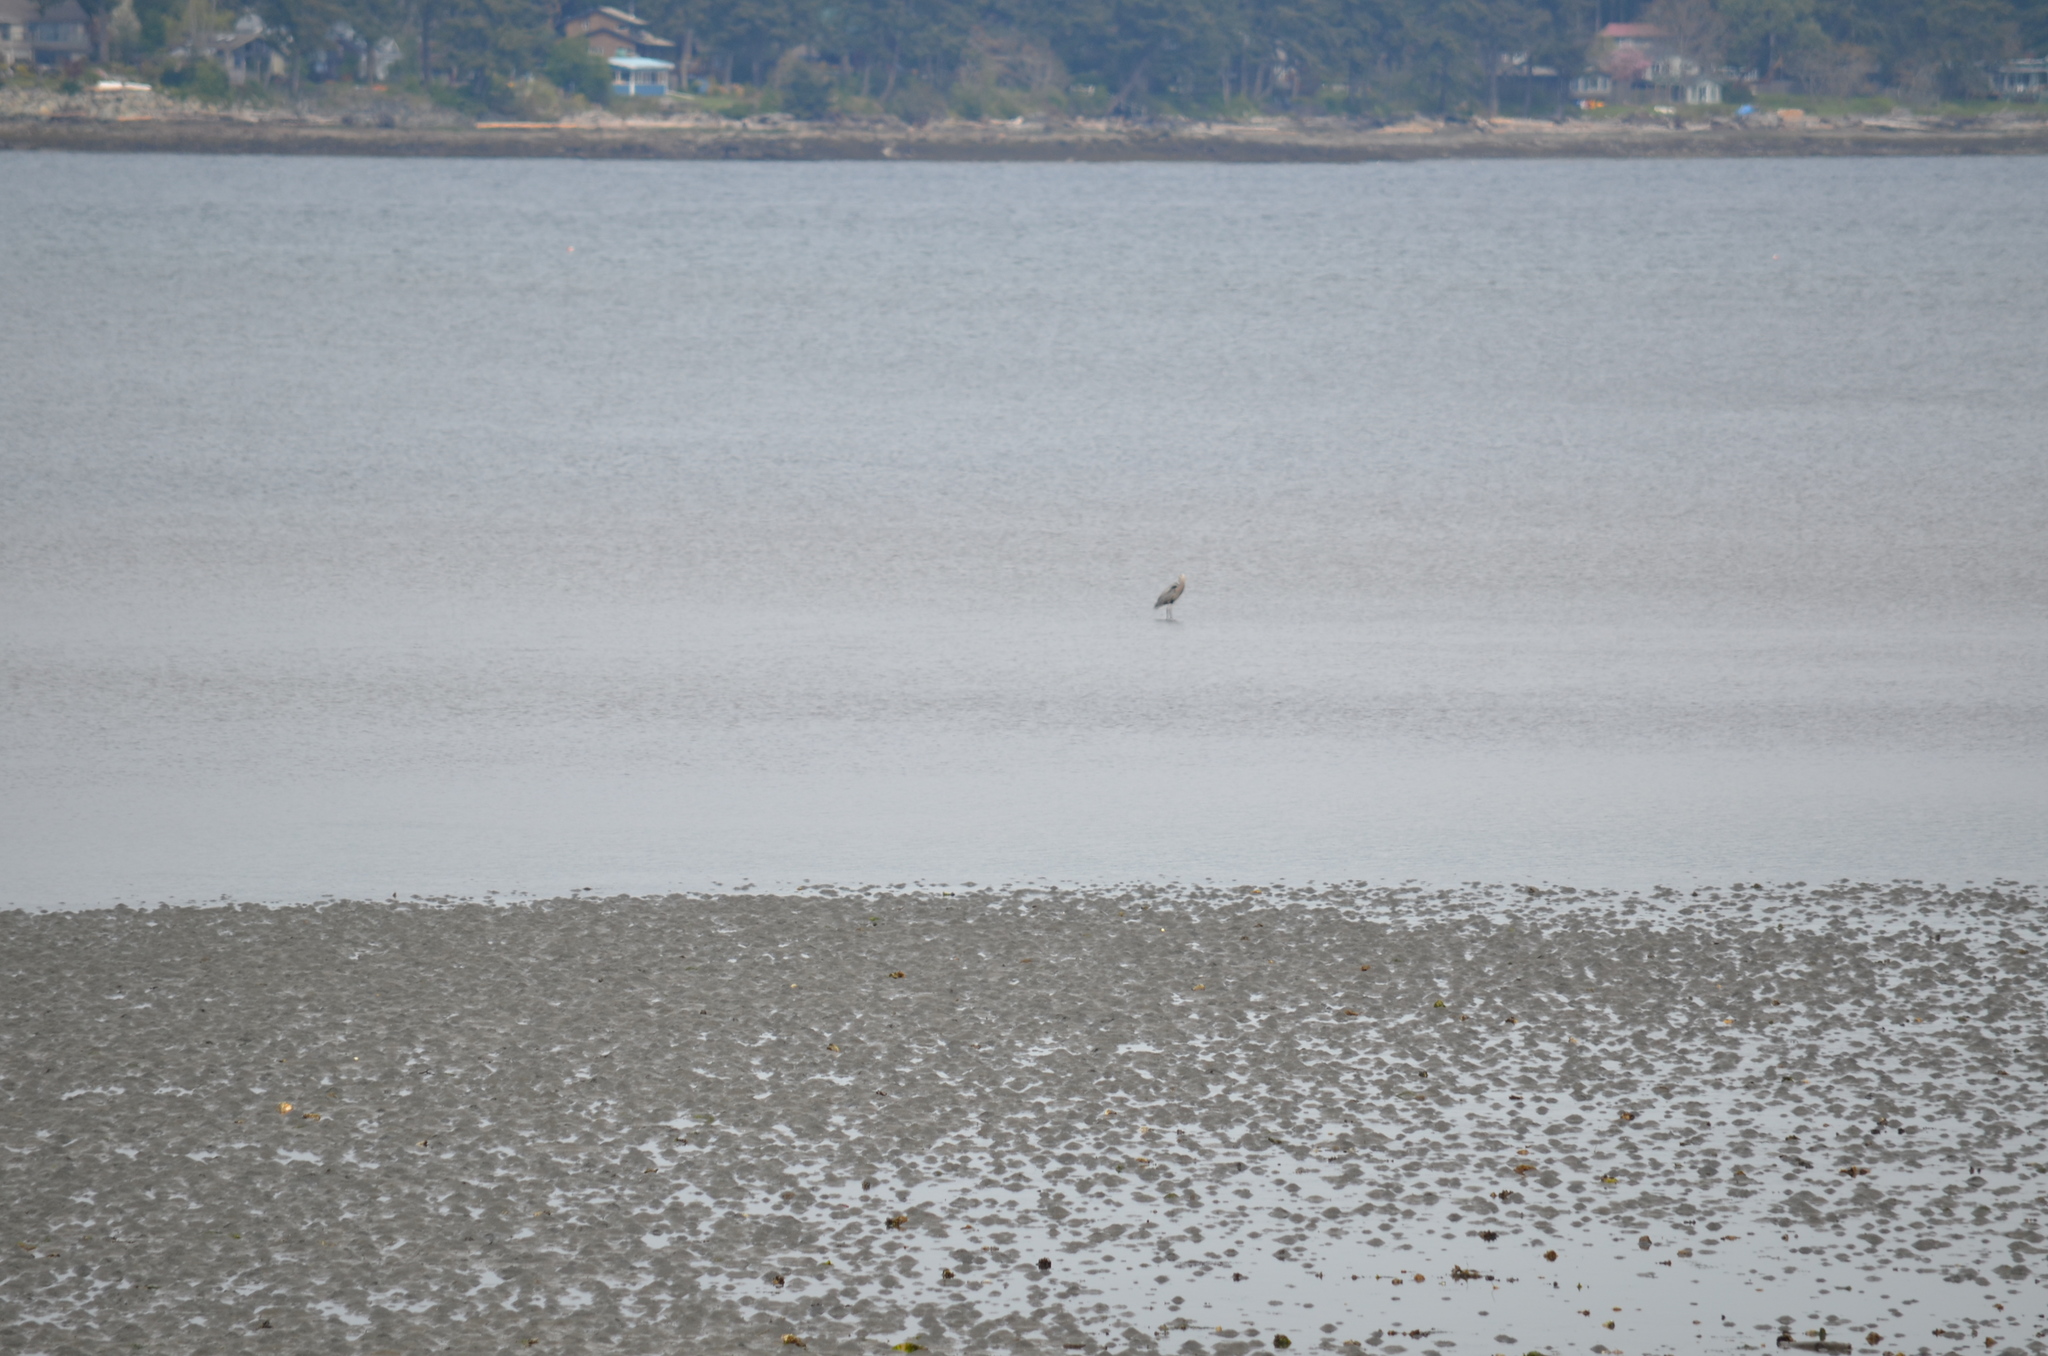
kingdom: Animalia
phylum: Chordata
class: Aves
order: Pelecaniformes
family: Ardeidae
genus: Ardea
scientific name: Ardea herodias
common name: Great blue heron
